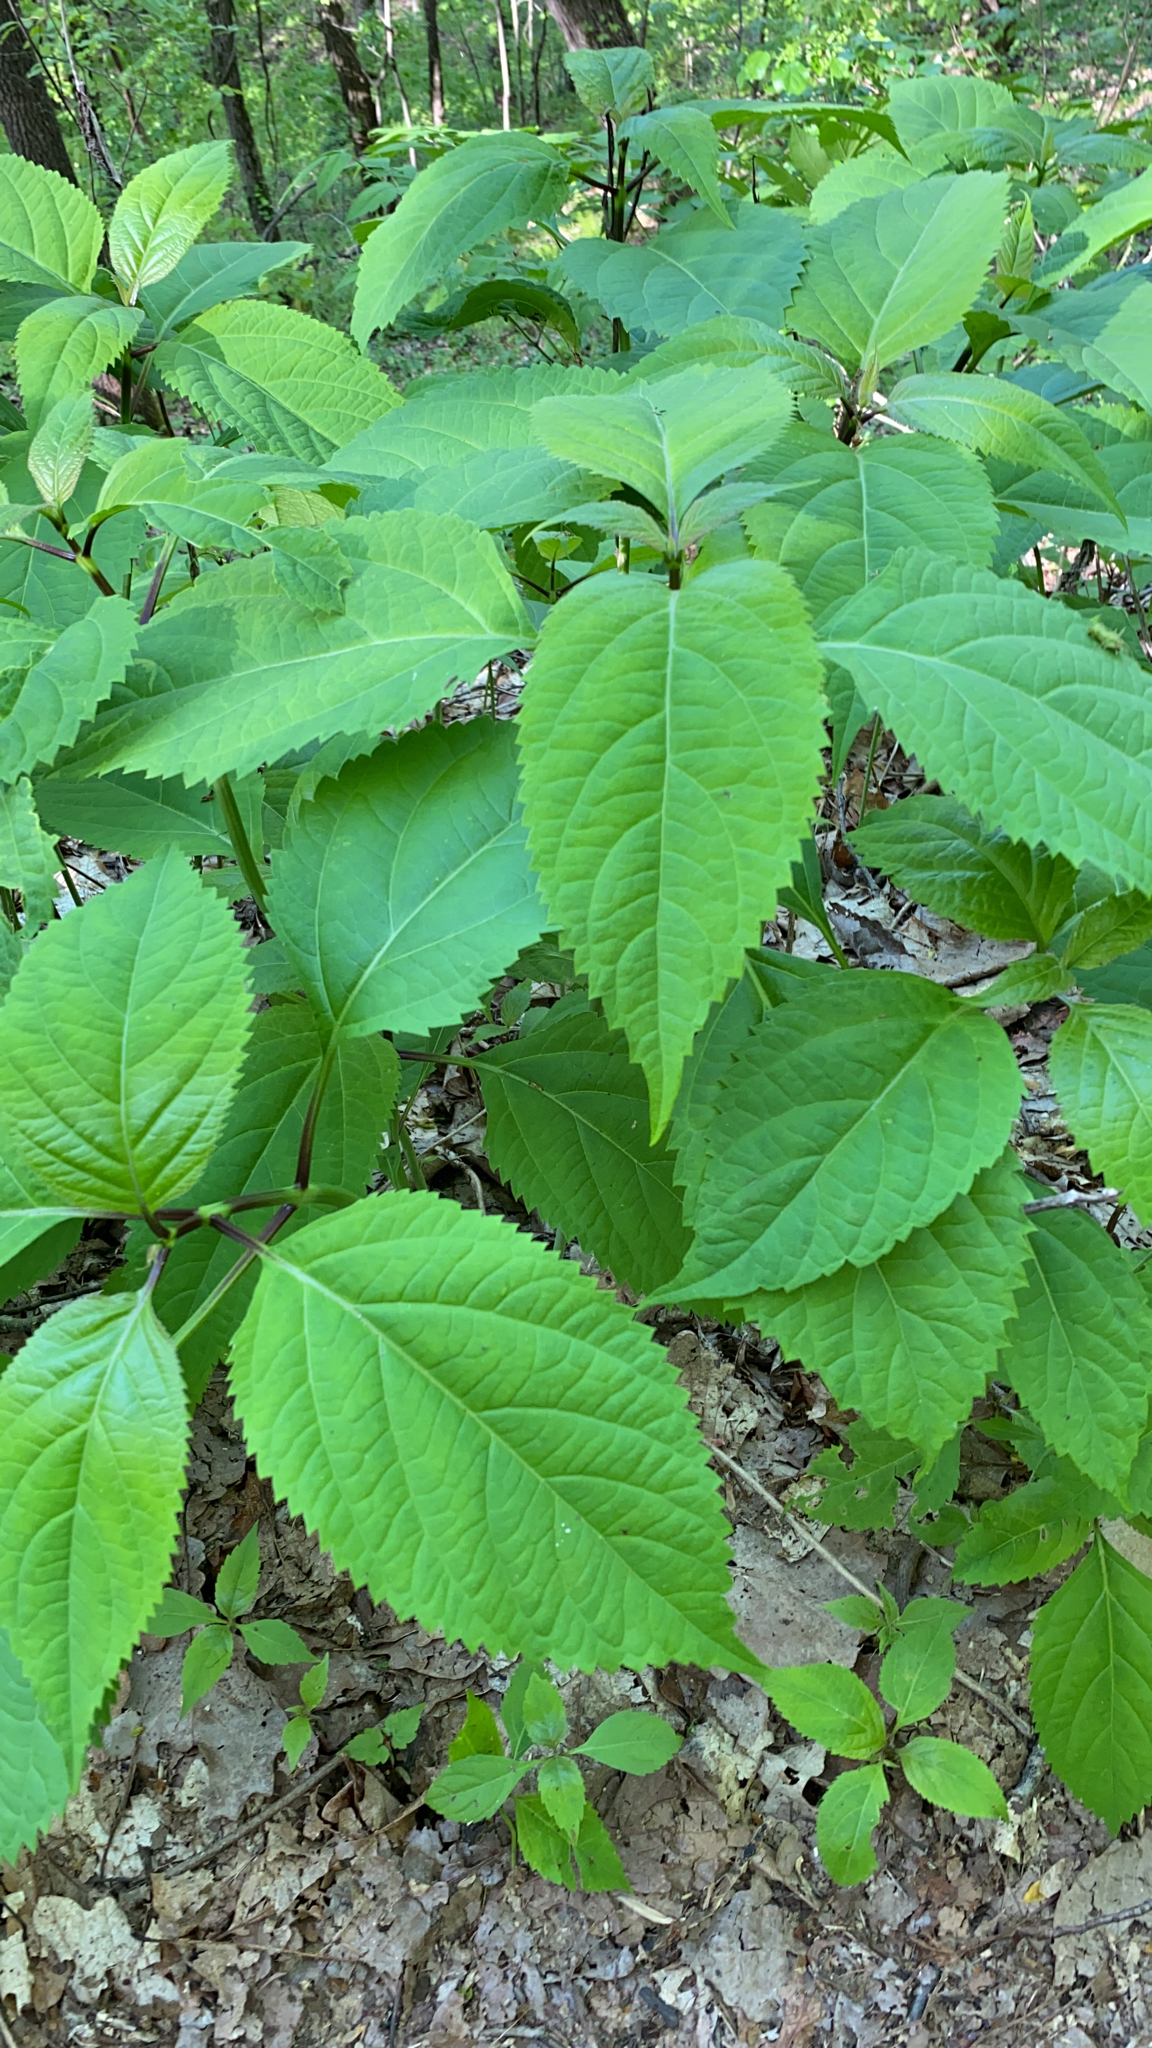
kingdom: Plantae
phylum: Tracheophyta
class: Magnoliopsida
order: Lamiales
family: Lamiaceae
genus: Collinsonia
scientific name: Collinsonia canadensis
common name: Northern horsebalm
